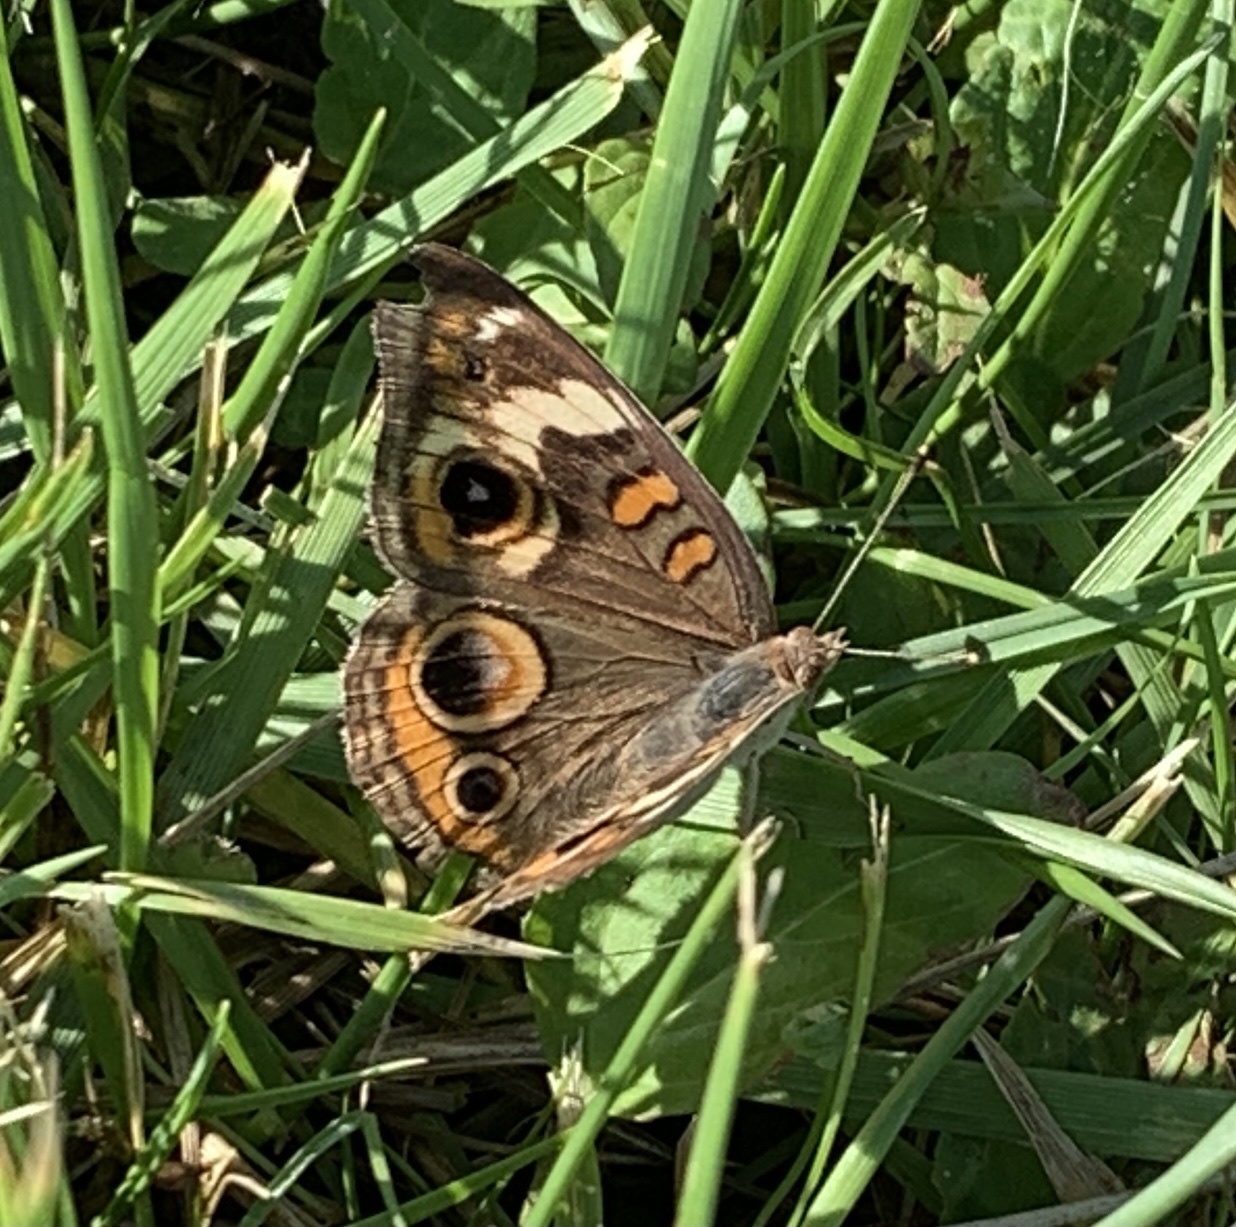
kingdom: Animalia
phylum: Arthropoda
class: Insecta
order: Lepidoptera
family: Nymphalidae
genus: Junonia
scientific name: Junonia coenia
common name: Common buckeye
